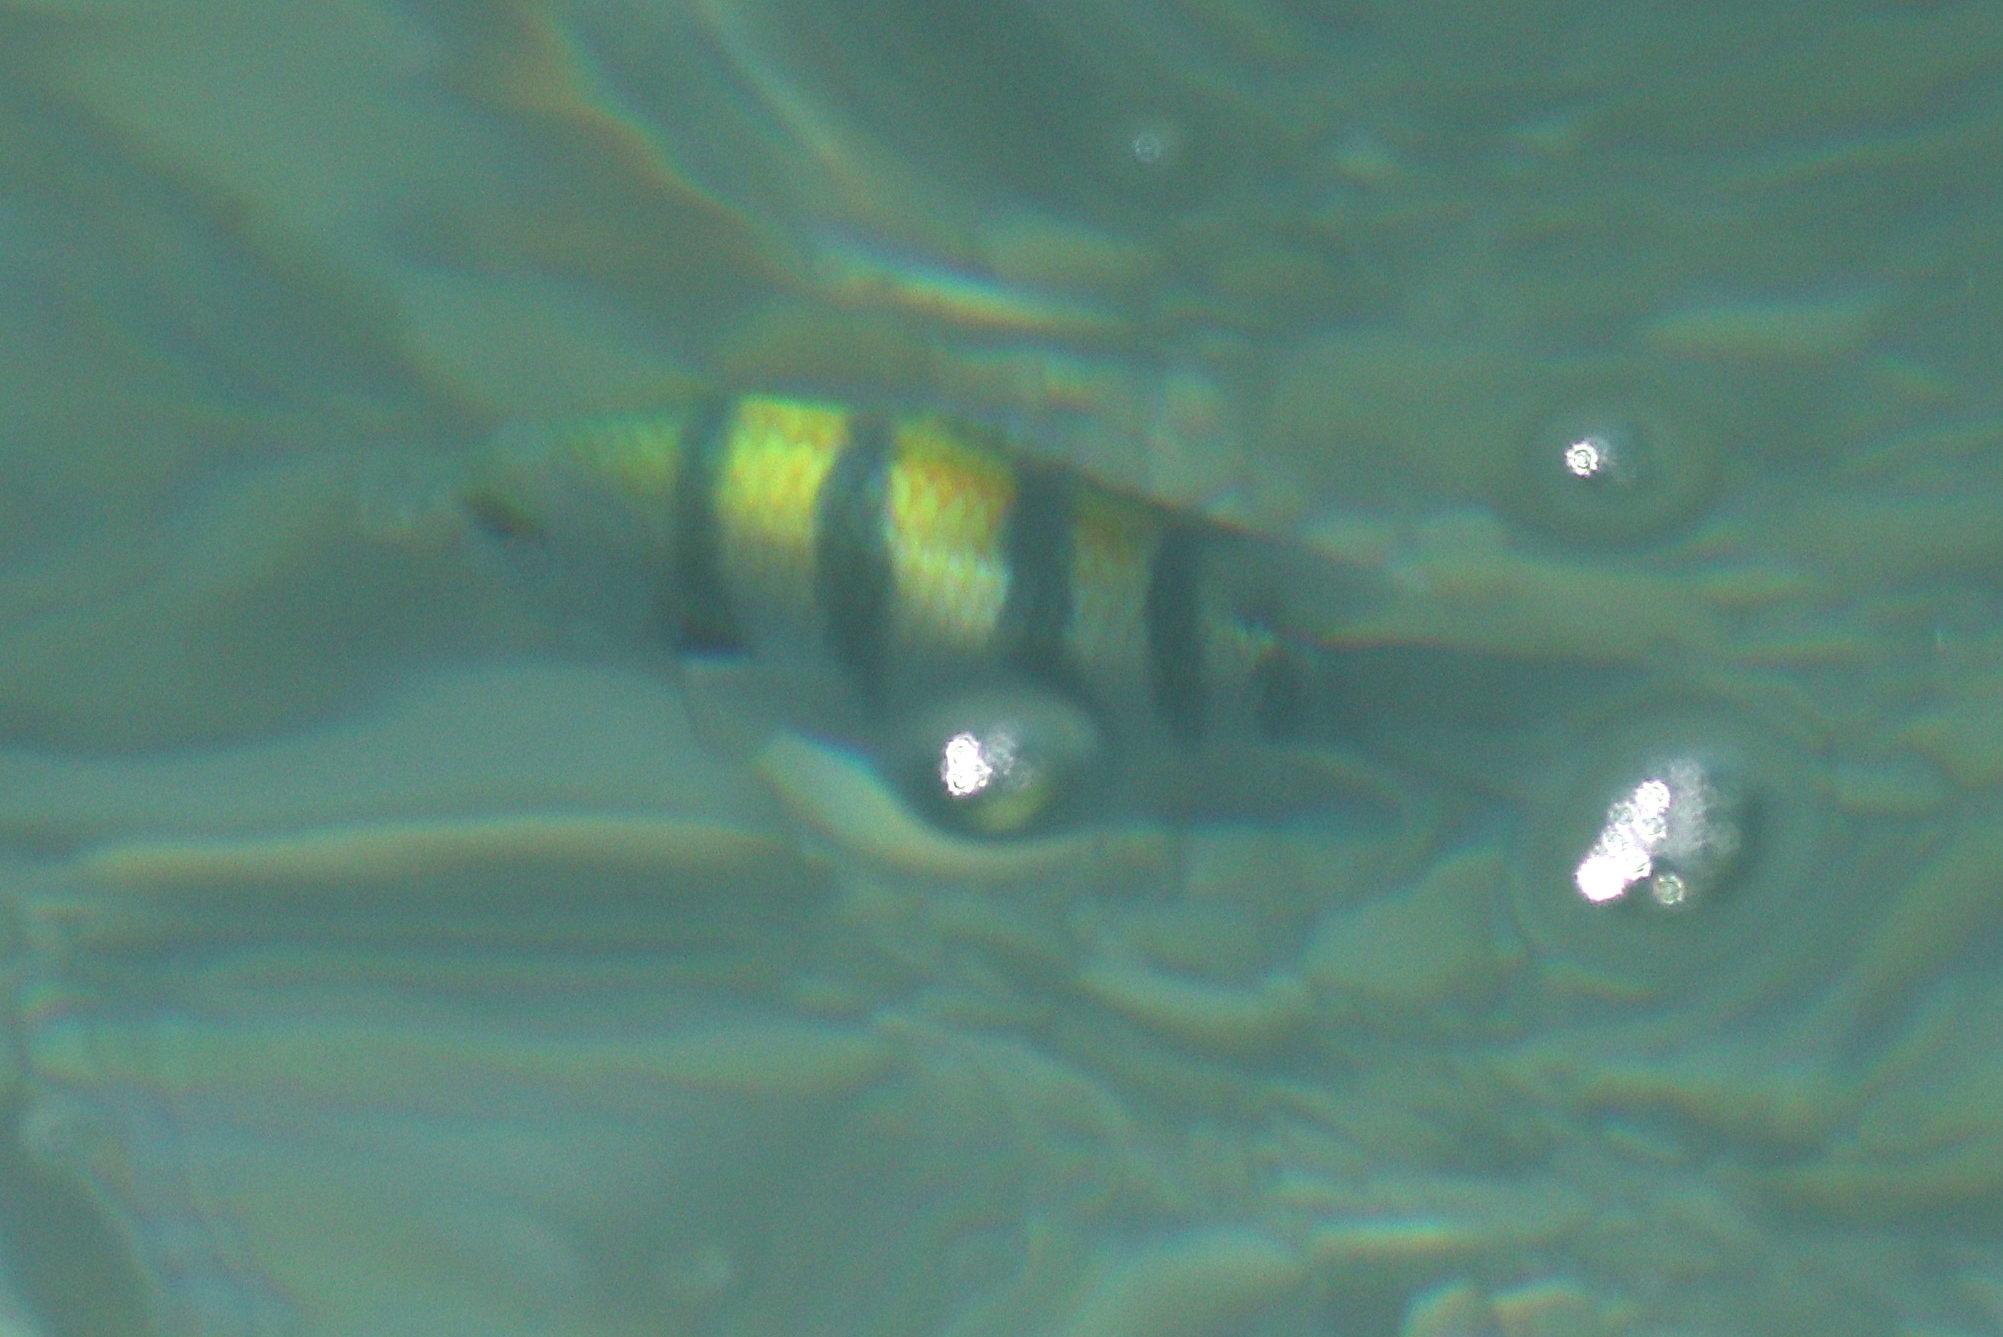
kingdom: Animalia
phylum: Chordata
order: Perciformes
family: Pomacentridae
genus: Abudefduf
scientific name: Abudefduf vaigiensis
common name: Indo-pacific sergeant
